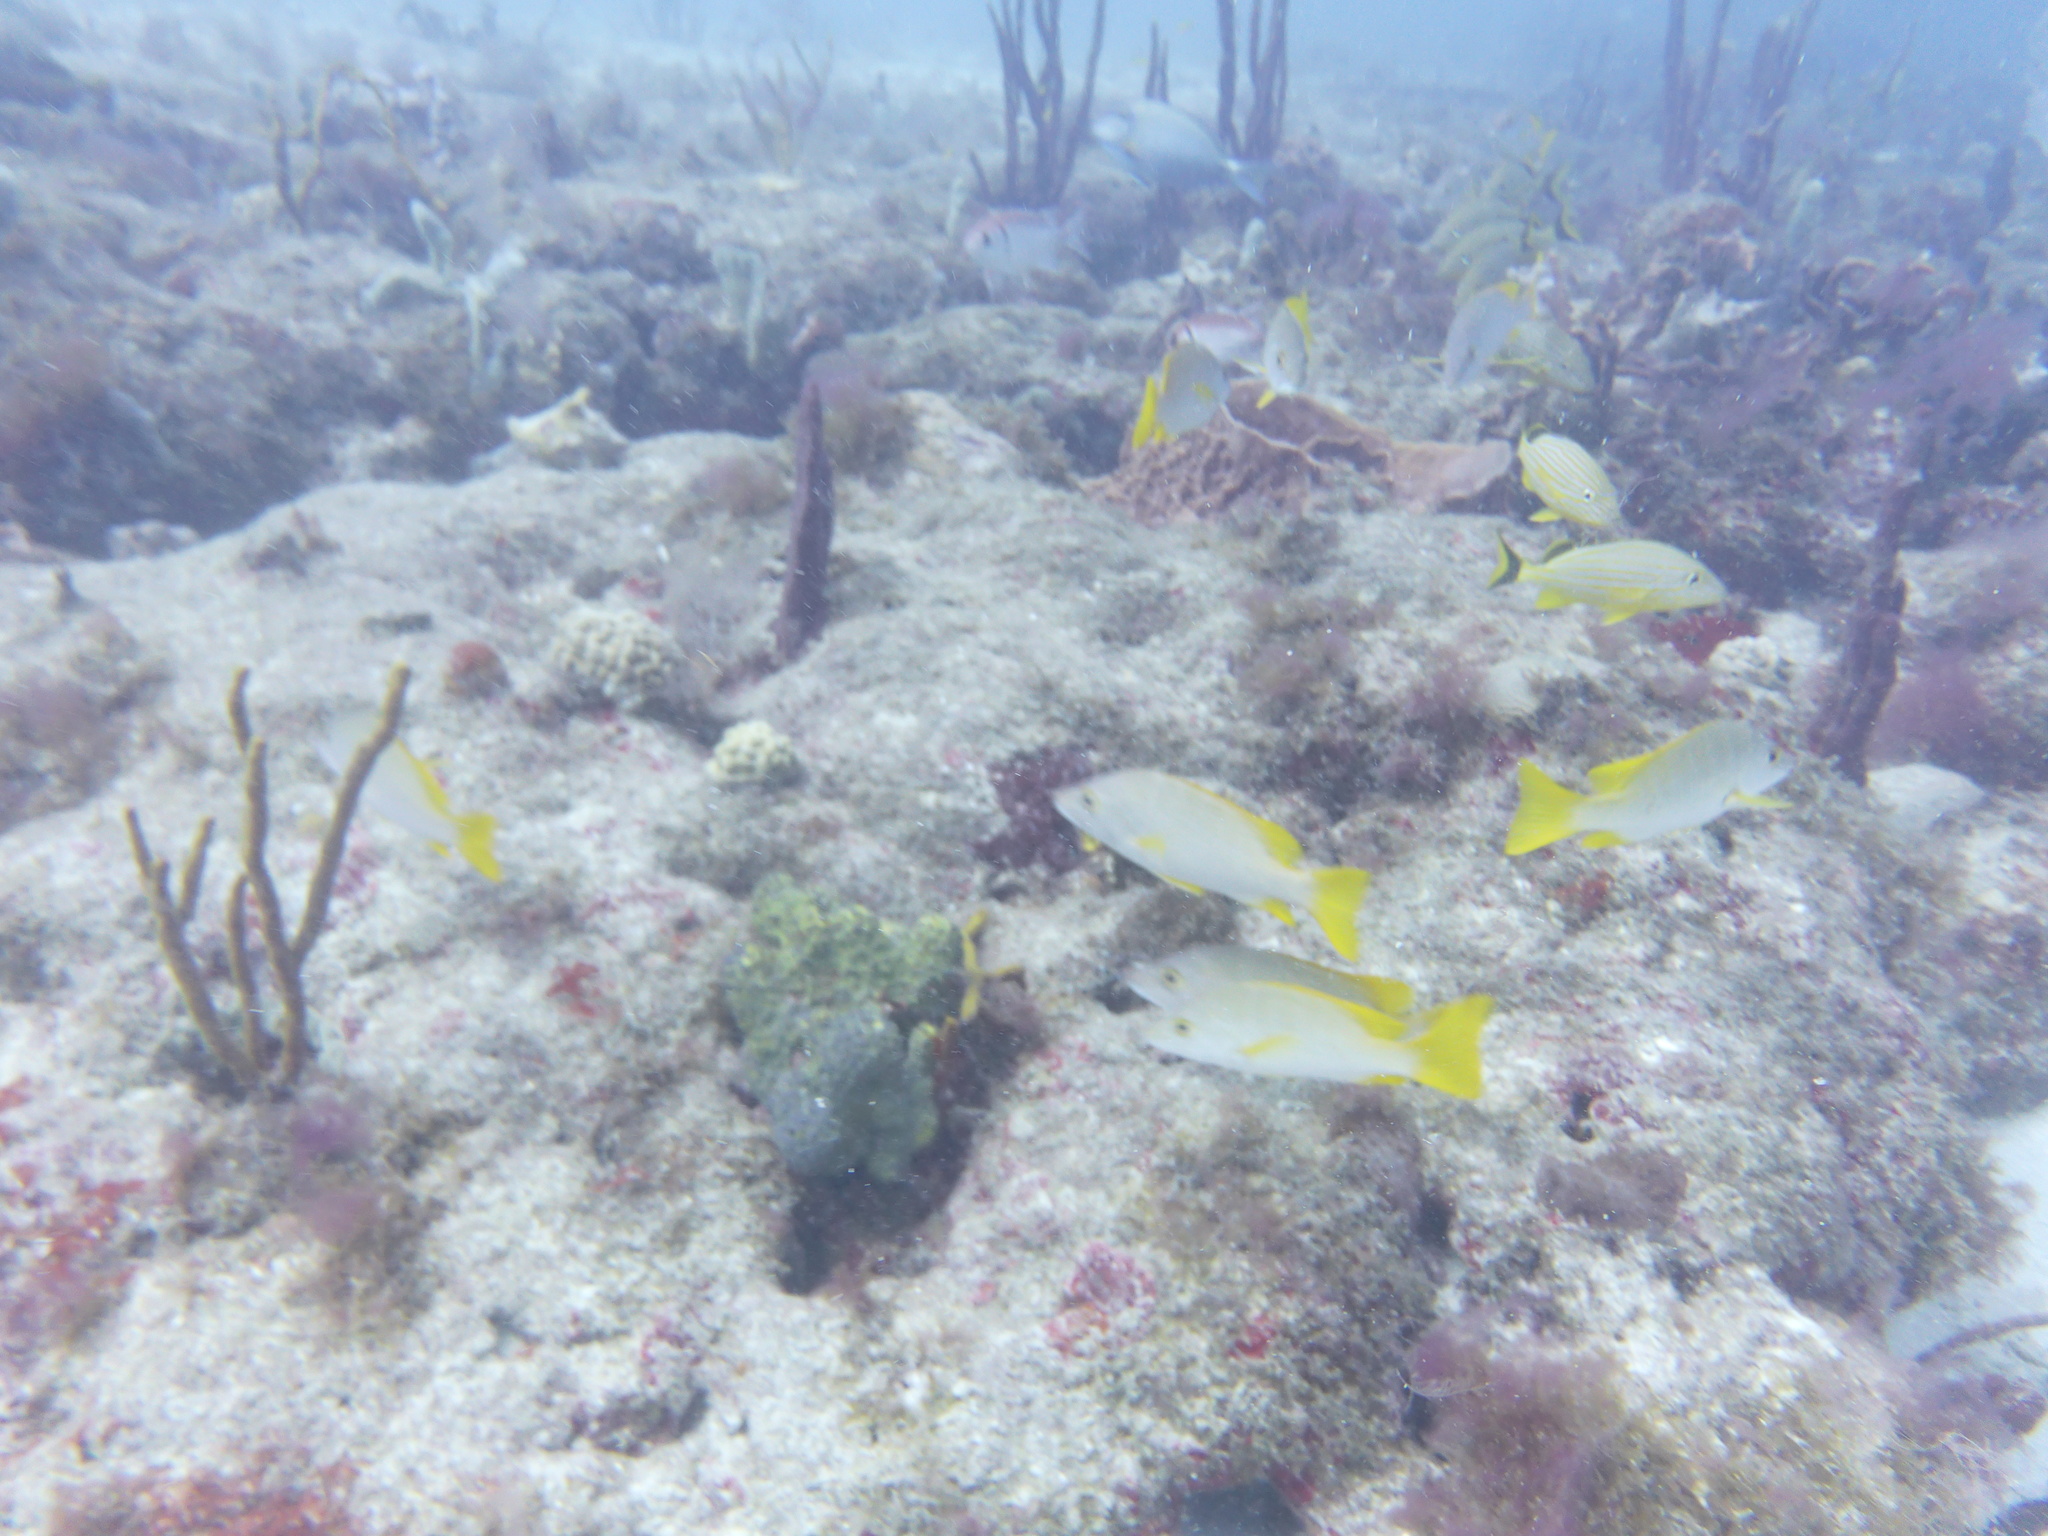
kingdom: Animalia
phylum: Chordata
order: Perciformes
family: Lutjanidae
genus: Lutjanus
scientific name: Lutjanus apodus
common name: Schoolmaster
